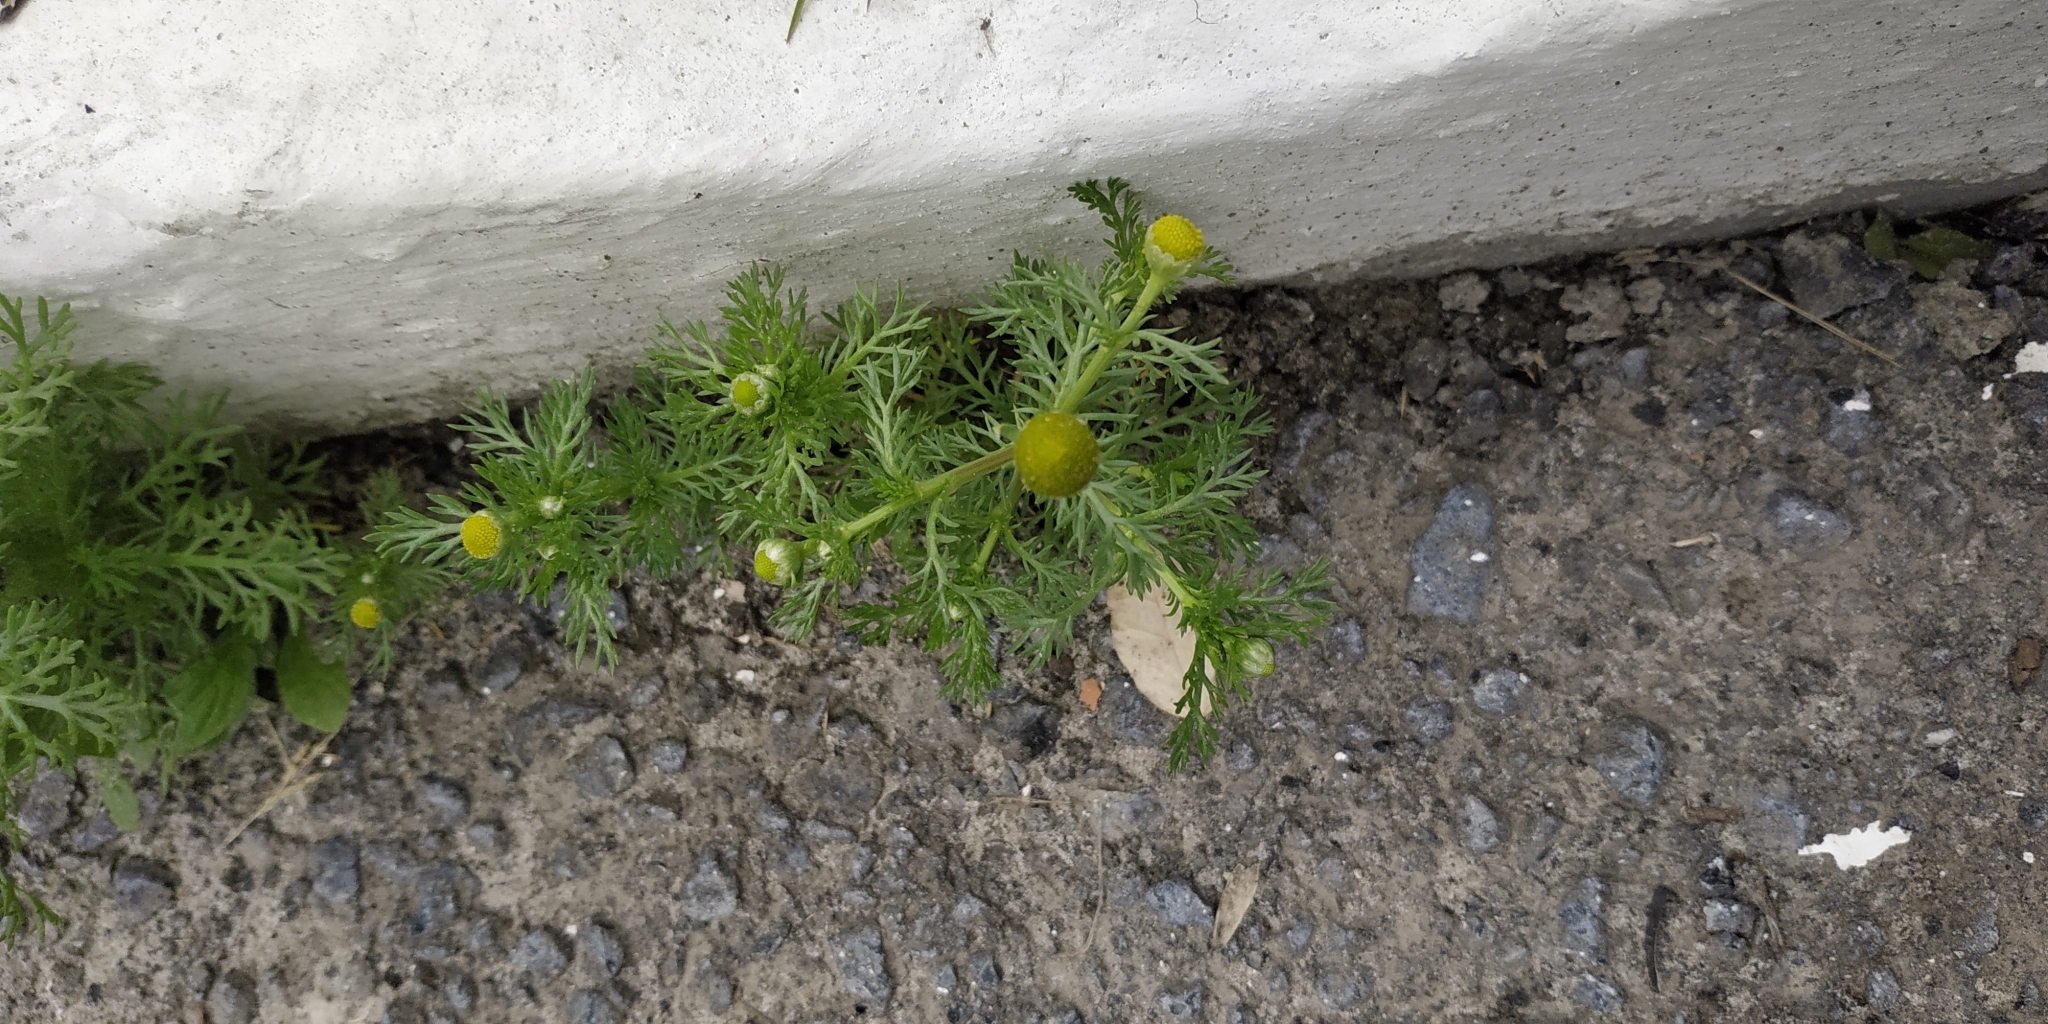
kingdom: Plantae
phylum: Tracheophyta
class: Magnoliopsida
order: Asterales
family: Asteraceae
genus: Matricaria
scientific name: Matricaria discoidea
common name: Disc mayweed
